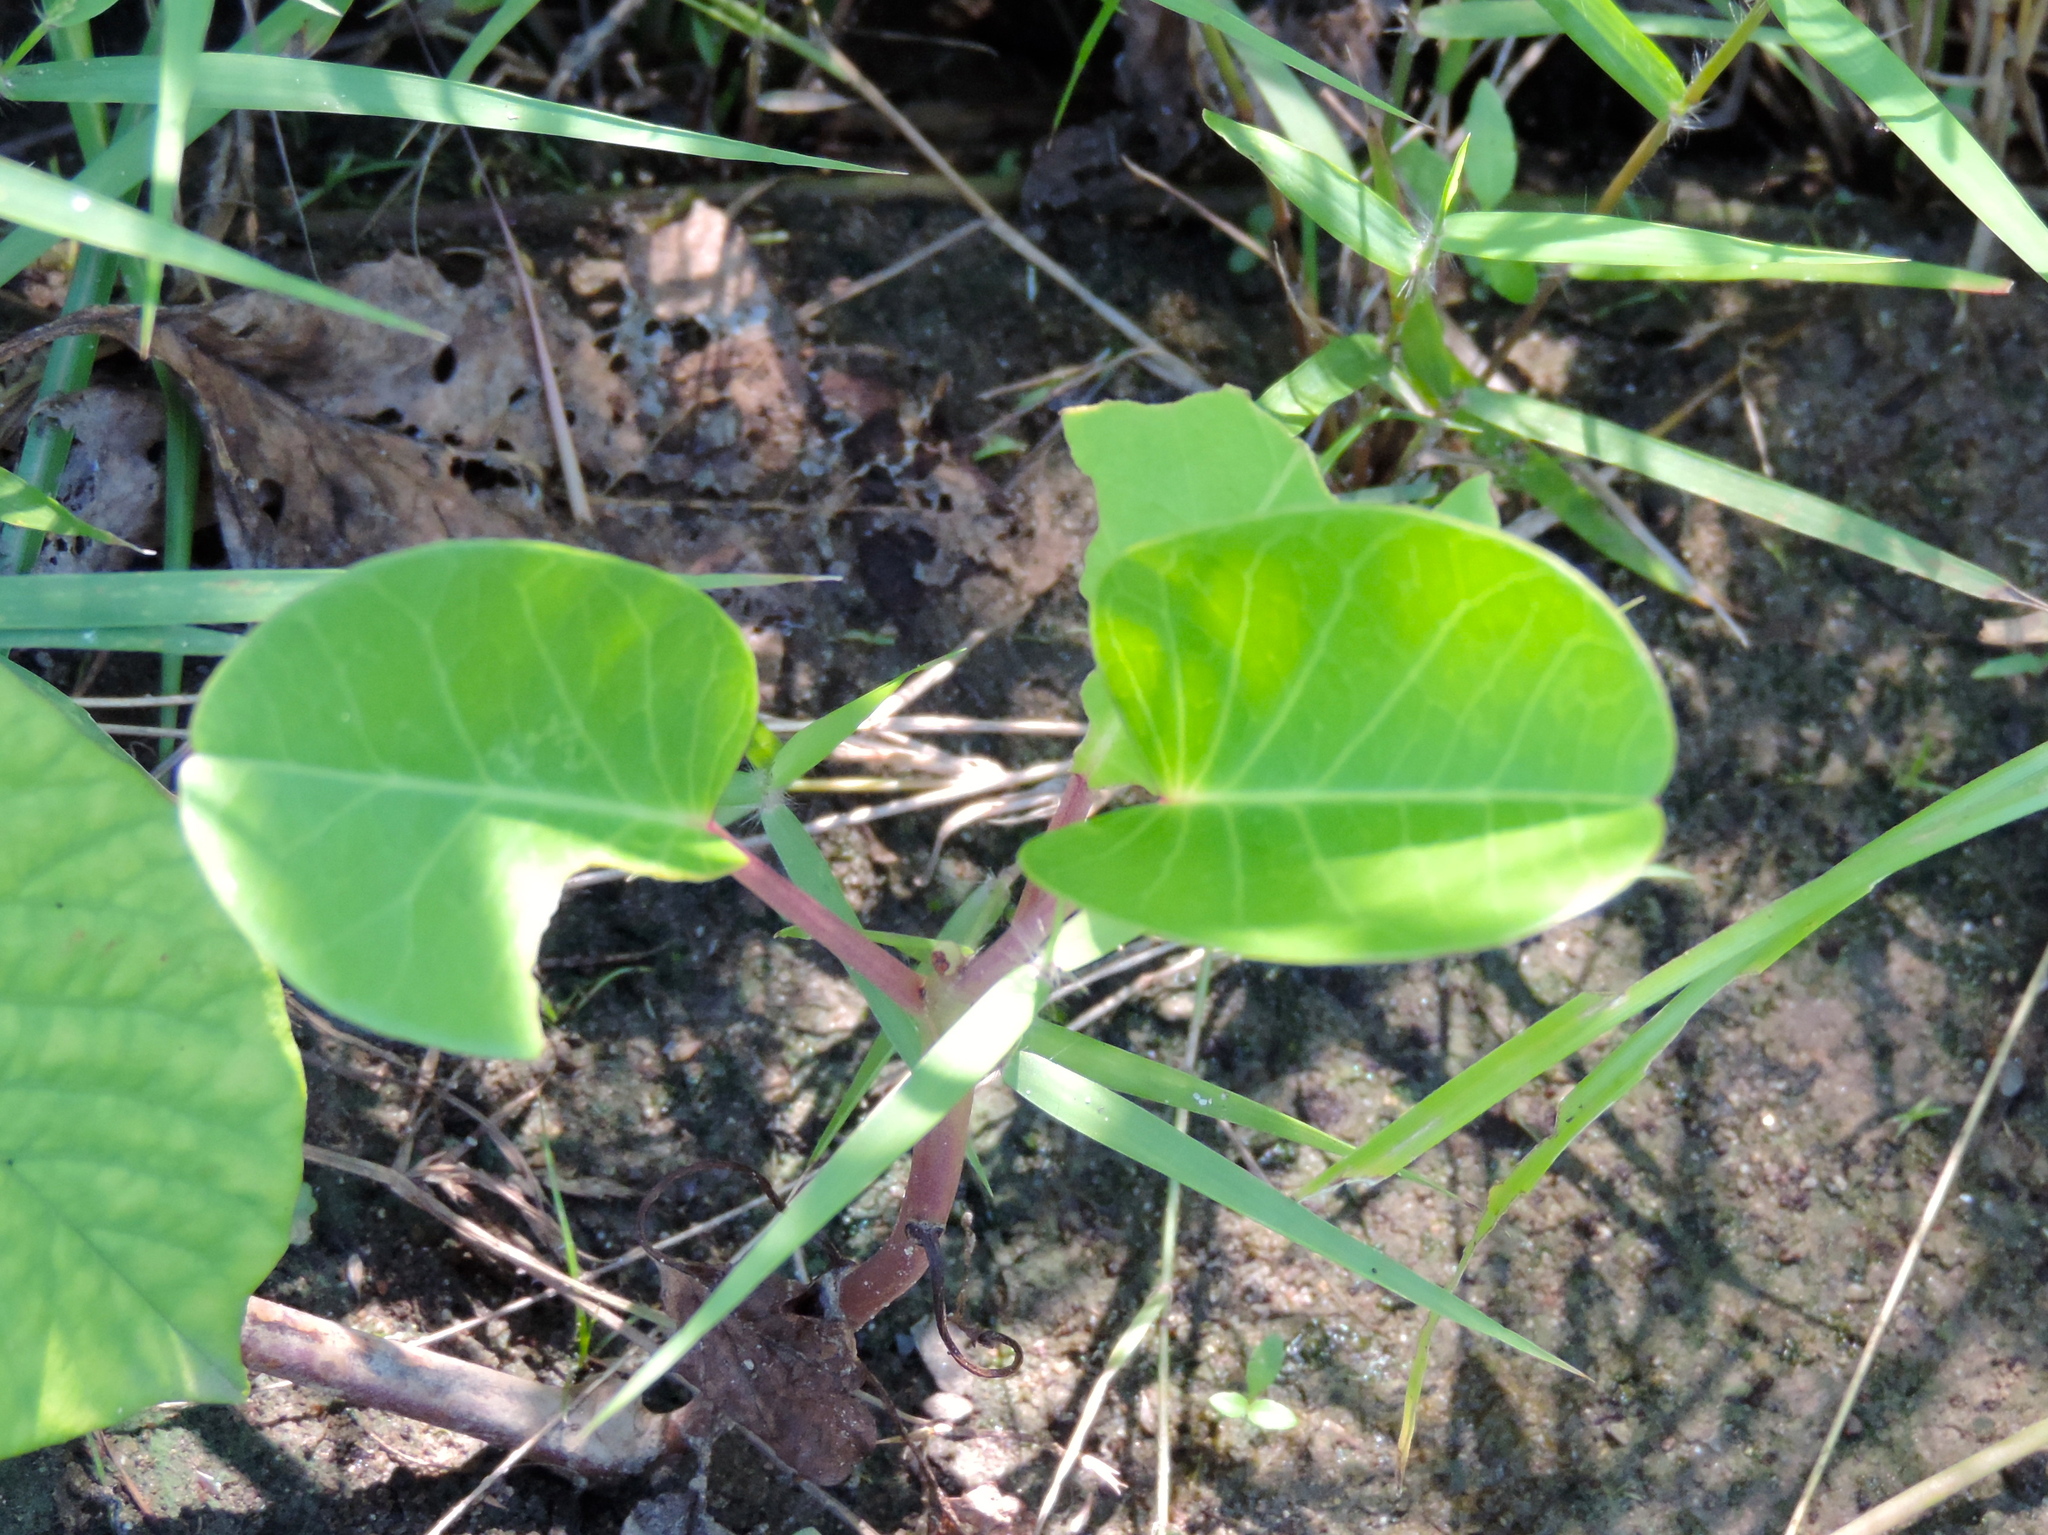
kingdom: Plantae
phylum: Tracheophyta
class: Magnoliopsida
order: Solanales
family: Convolvulaceae
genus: Ipomoea
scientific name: Ipomoea pes-caprae
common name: Beach morning glory
